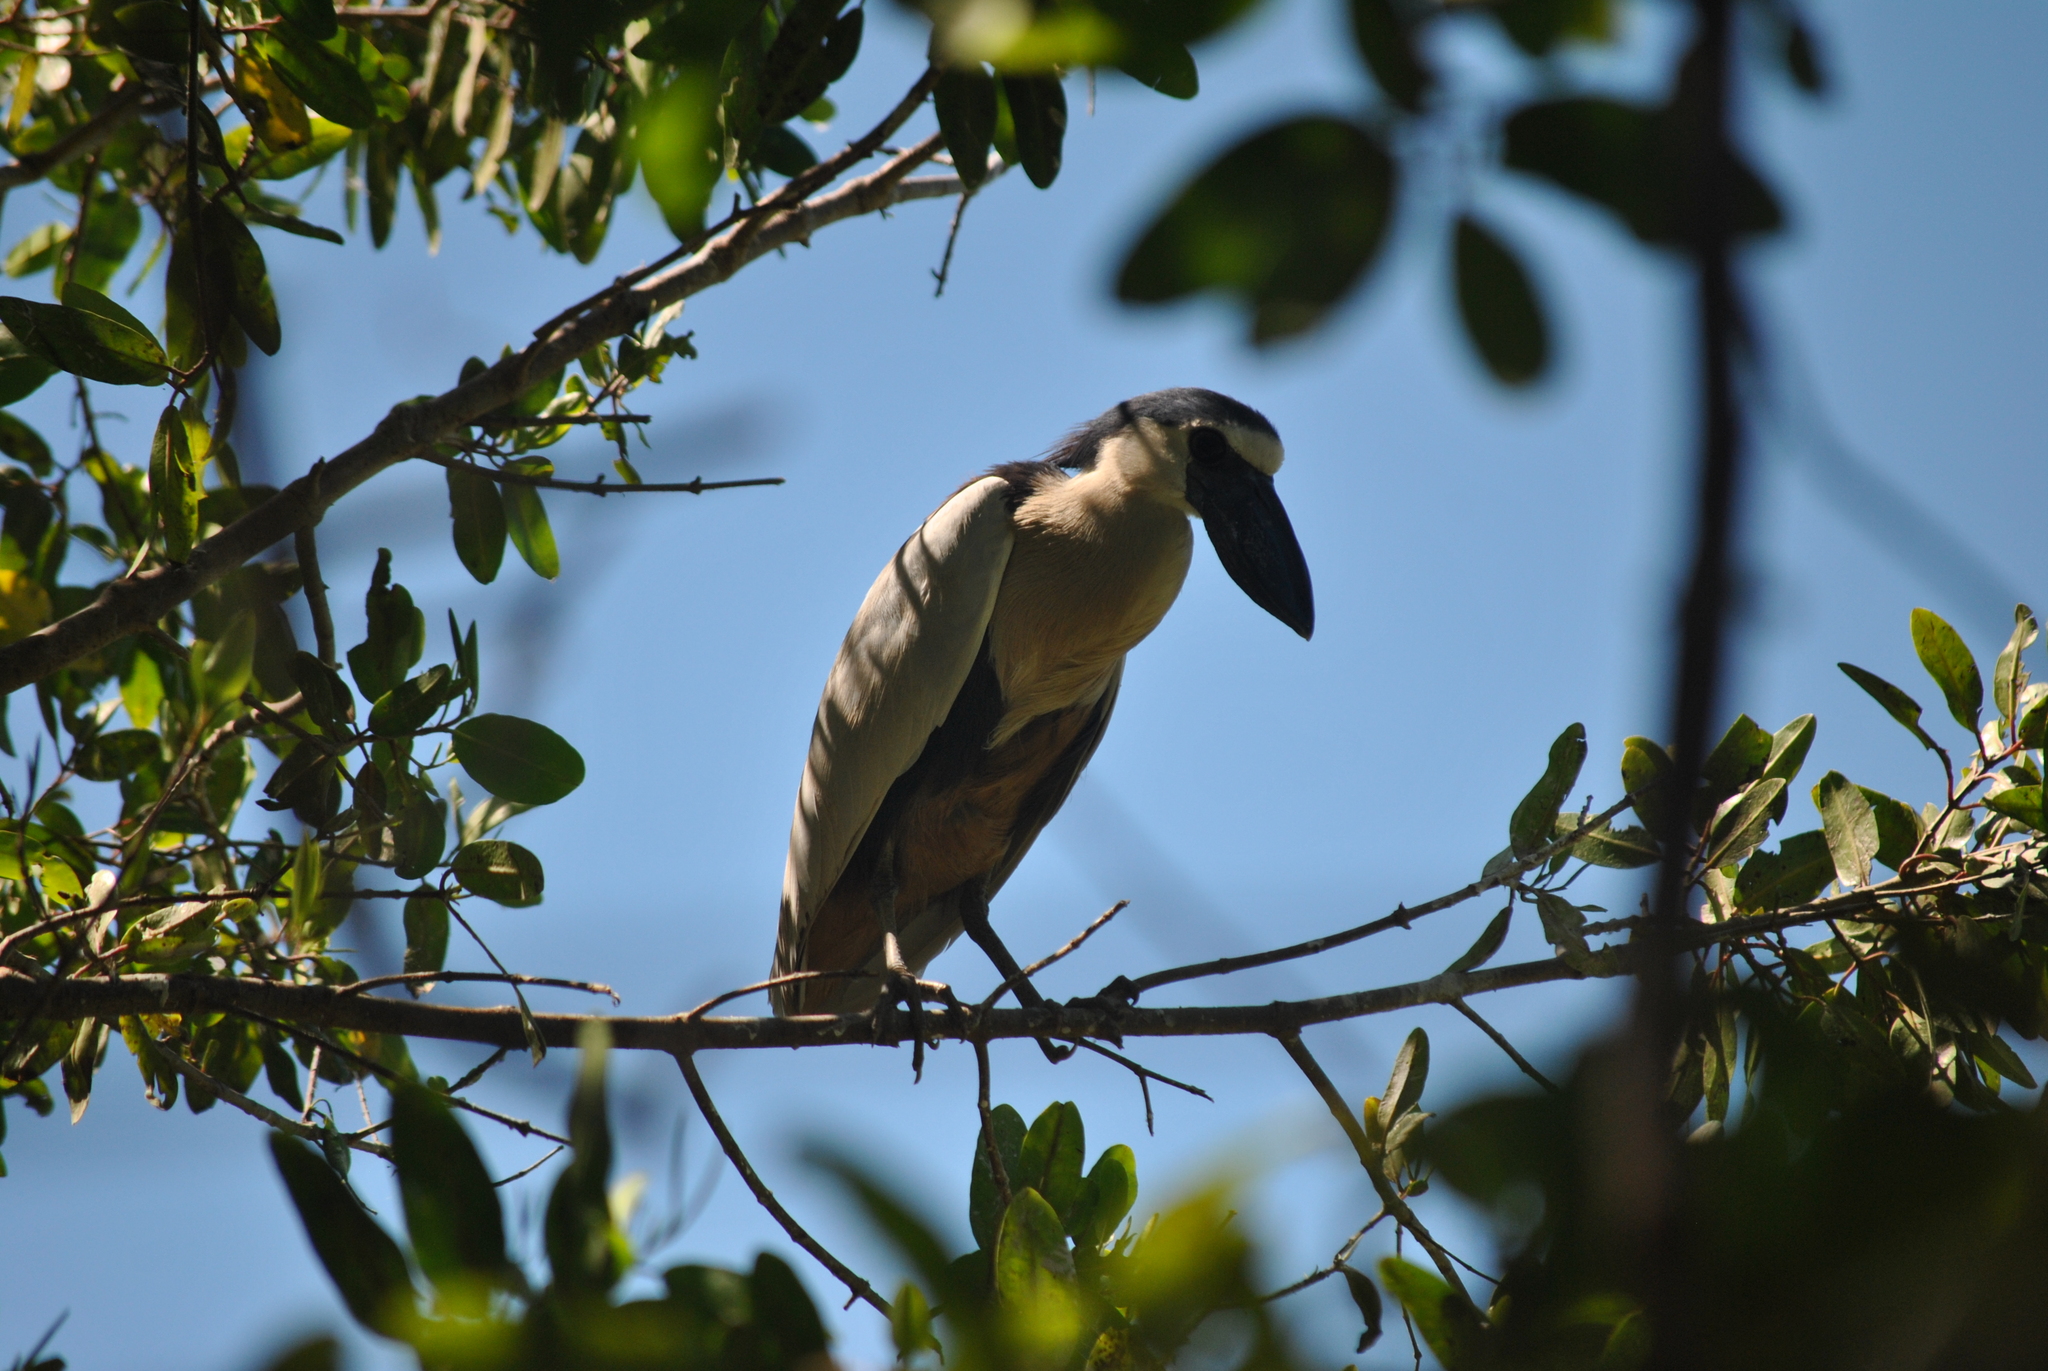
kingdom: Animalia
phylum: Chordata
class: Aves
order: Pelecaniformes
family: Ardeidae
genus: Cochlearius
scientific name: Cochlearius cochlearius
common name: Boat-billed heron
